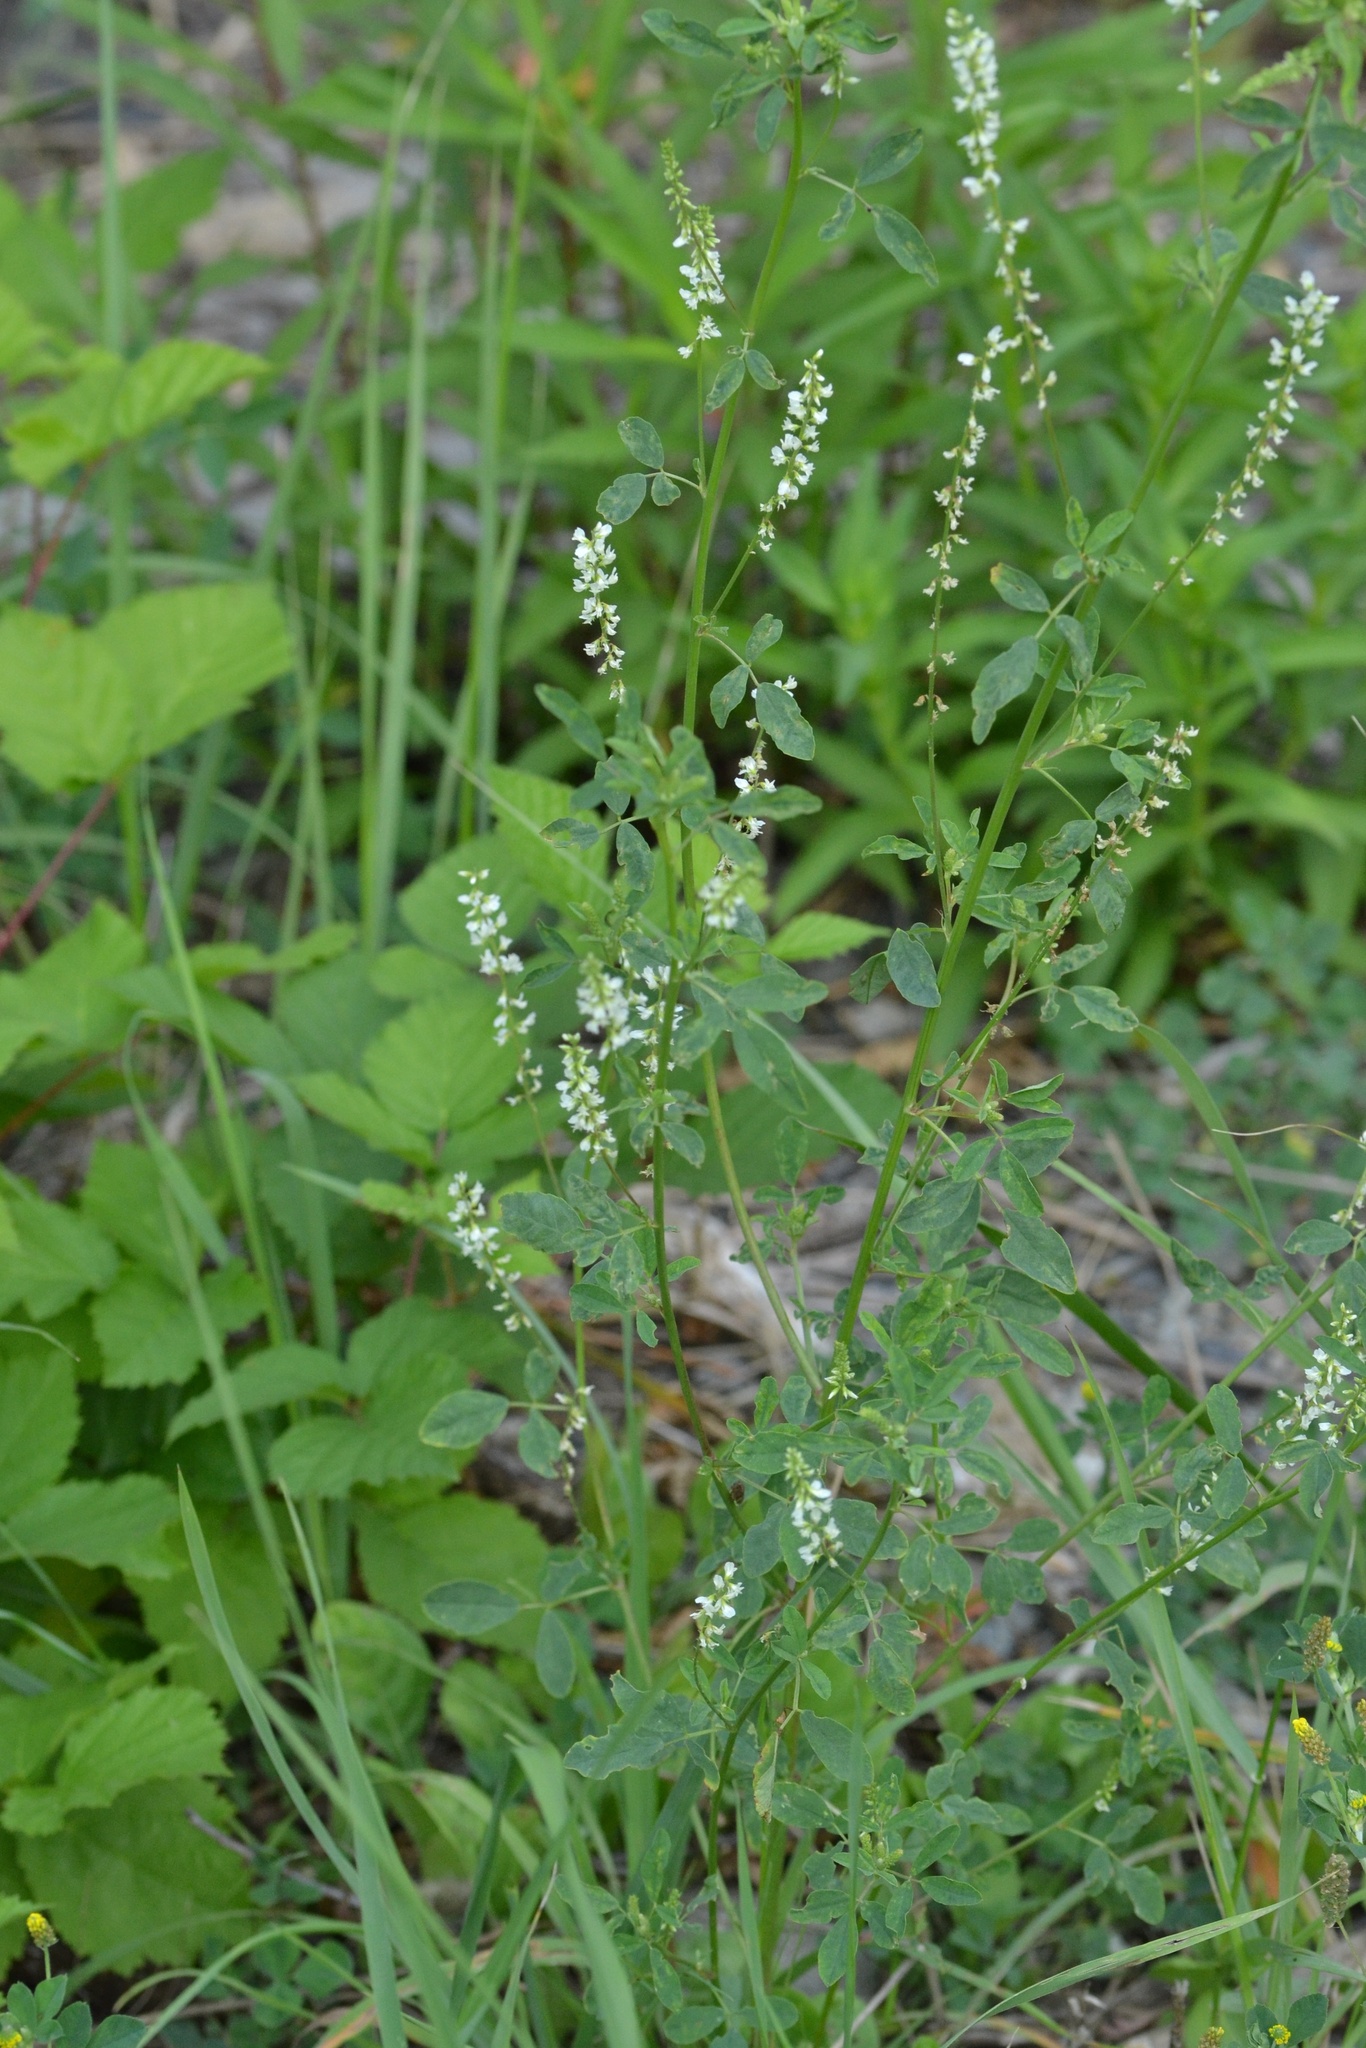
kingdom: Plantae
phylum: Tracheophyta
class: Magnoliopsida
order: Fabales
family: Fabaceae
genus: Melilotus
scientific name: Melilotus albus
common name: White melilot
